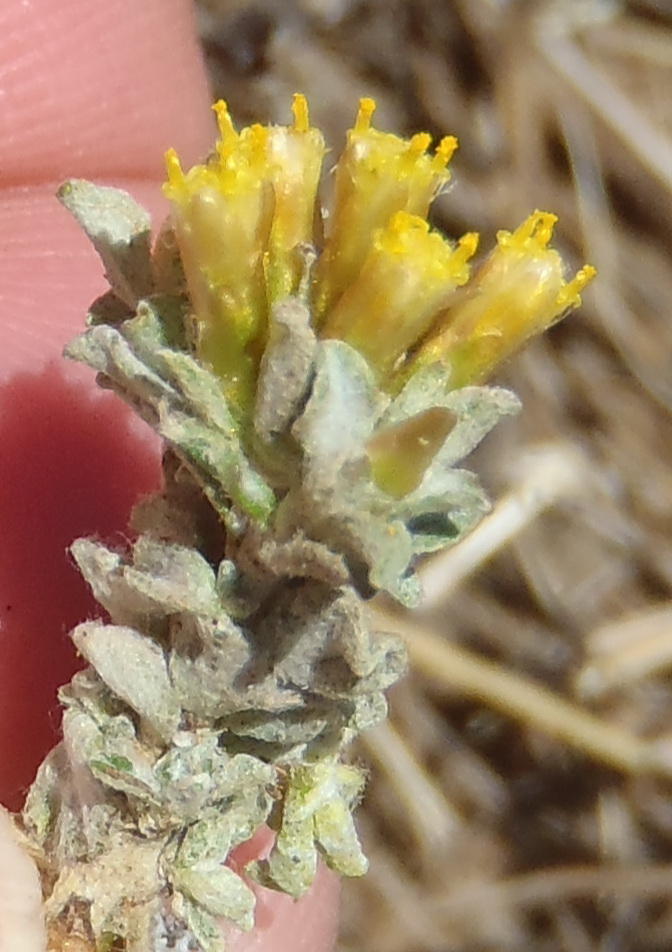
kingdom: Plantae
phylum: Tracheophyta
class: Magnoliopsida
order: Asterales
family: Asteraceae
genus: Helichrysum
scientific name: Helichrysum lucilioides
